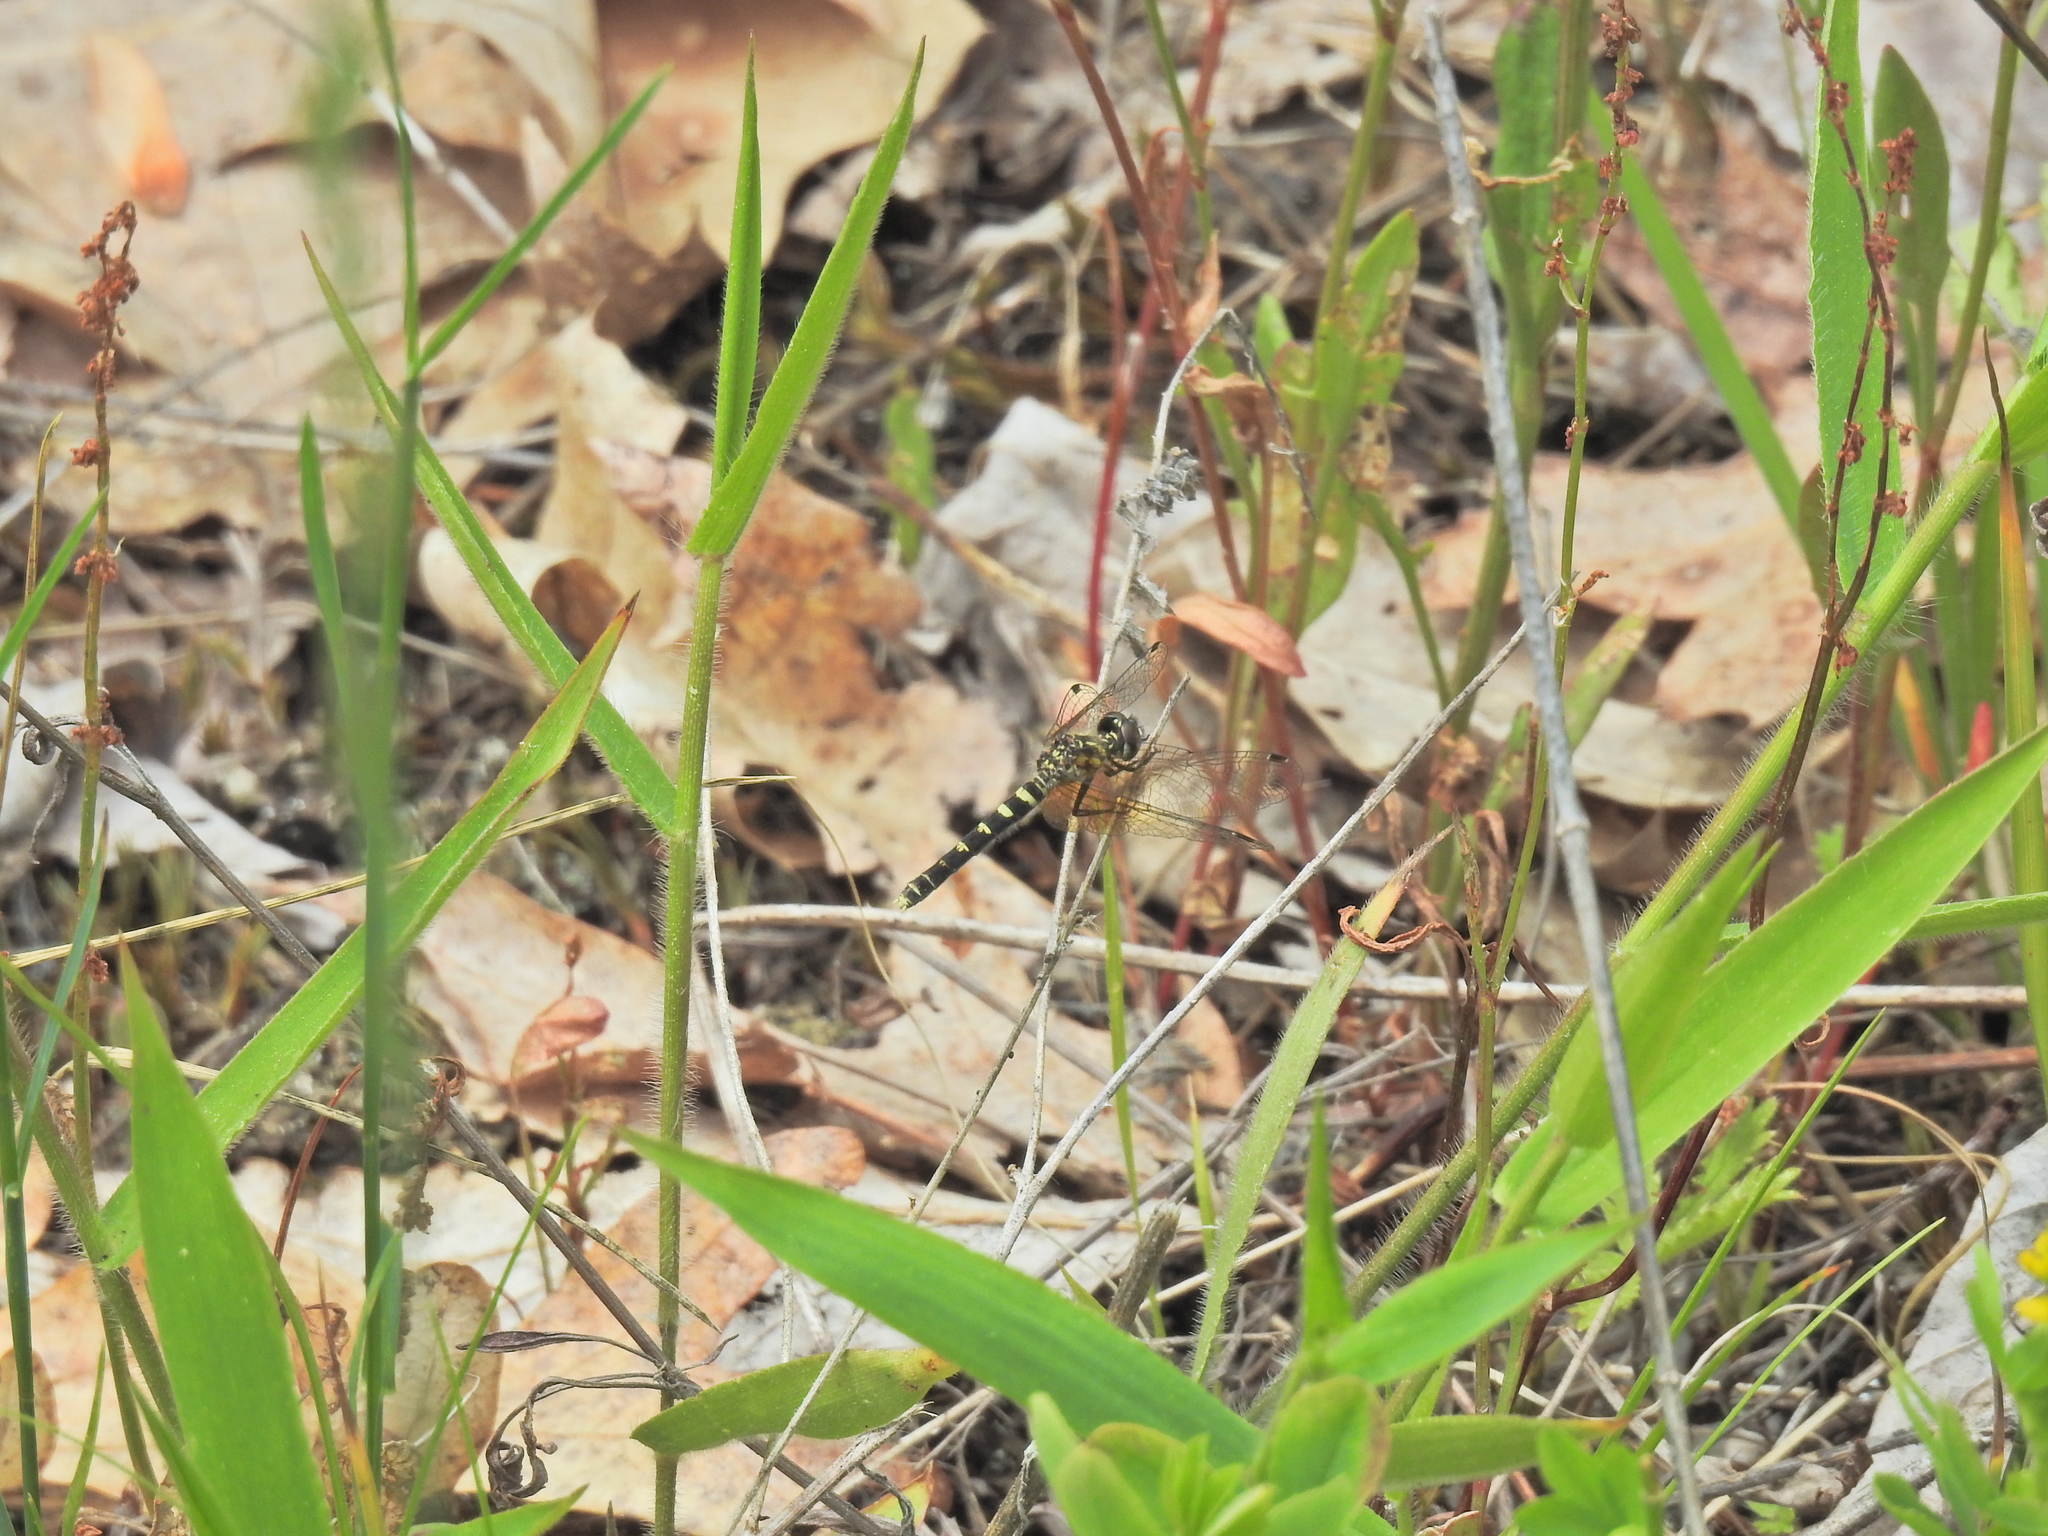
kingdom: Animalia
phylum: Arthropoda
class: Insecta
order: Odonata
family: Libellulidae
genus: Nannothemis
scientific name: Nannothemis bella
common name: Elfin skimmer
